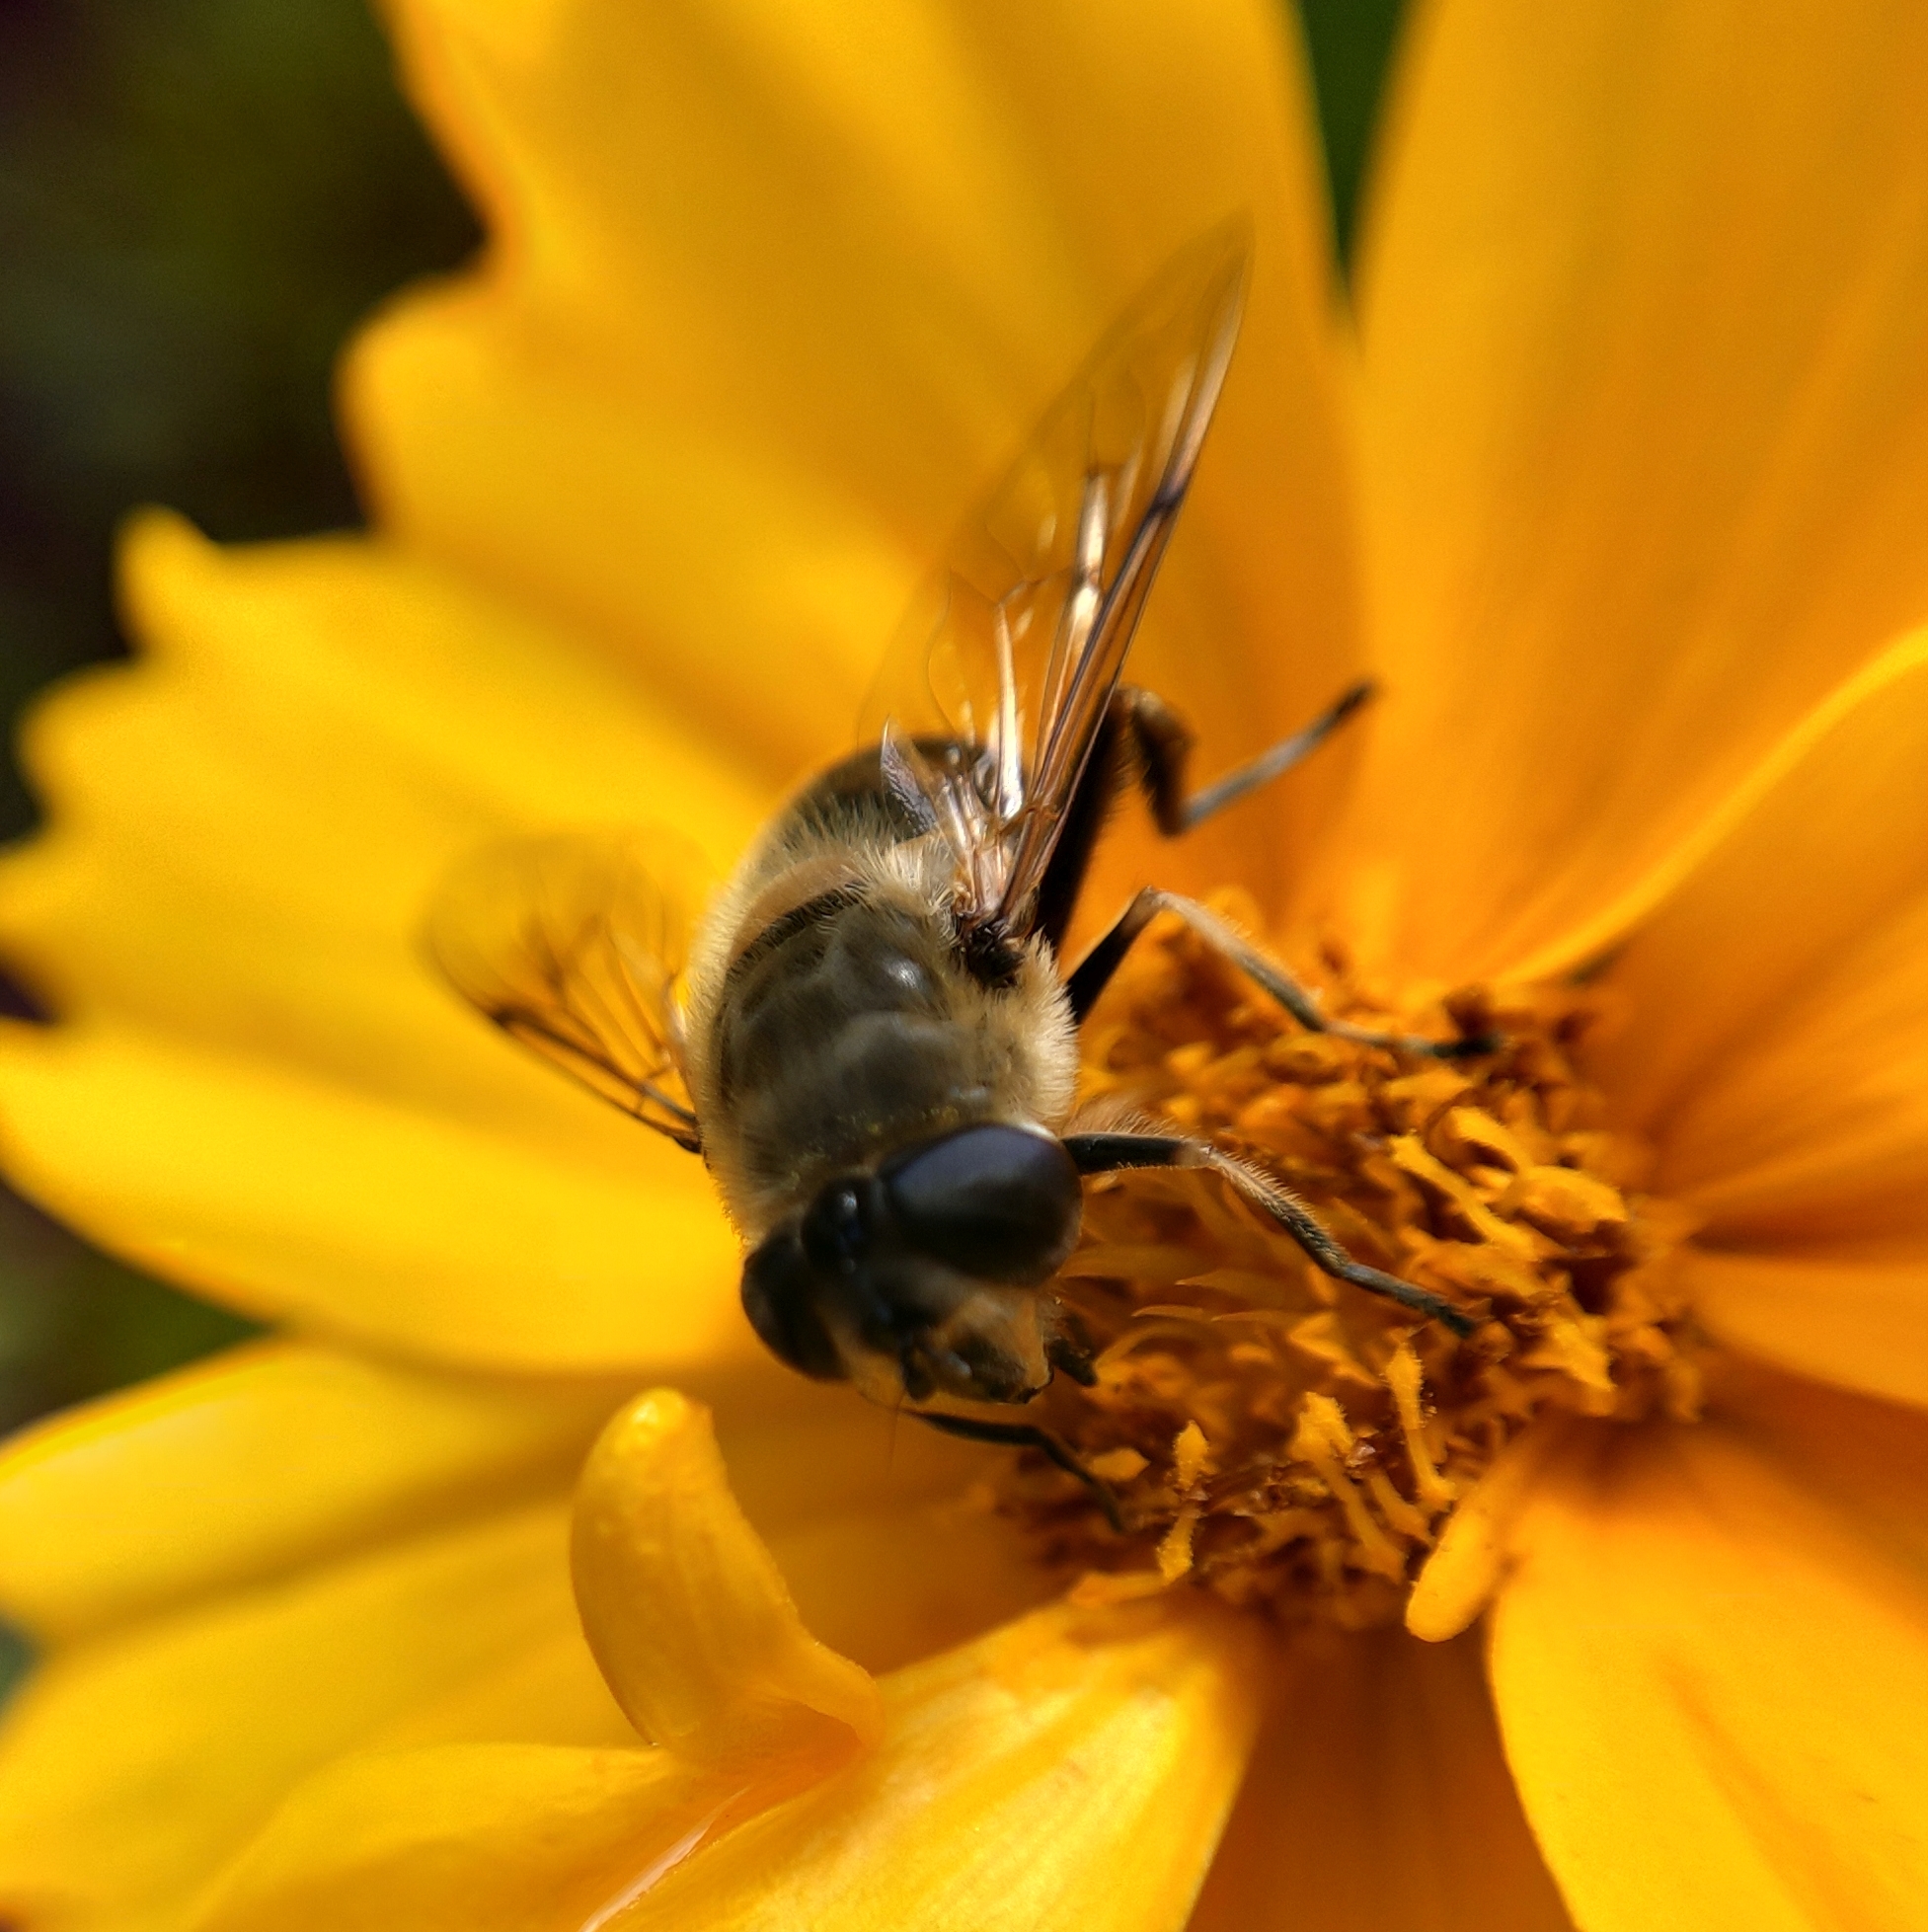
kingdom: Animalia
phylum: Arthropoda
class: Insecta
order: Diptera
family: Syrphidae
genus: Eristalis
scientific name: Eristalis tenax
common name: Drone fly
